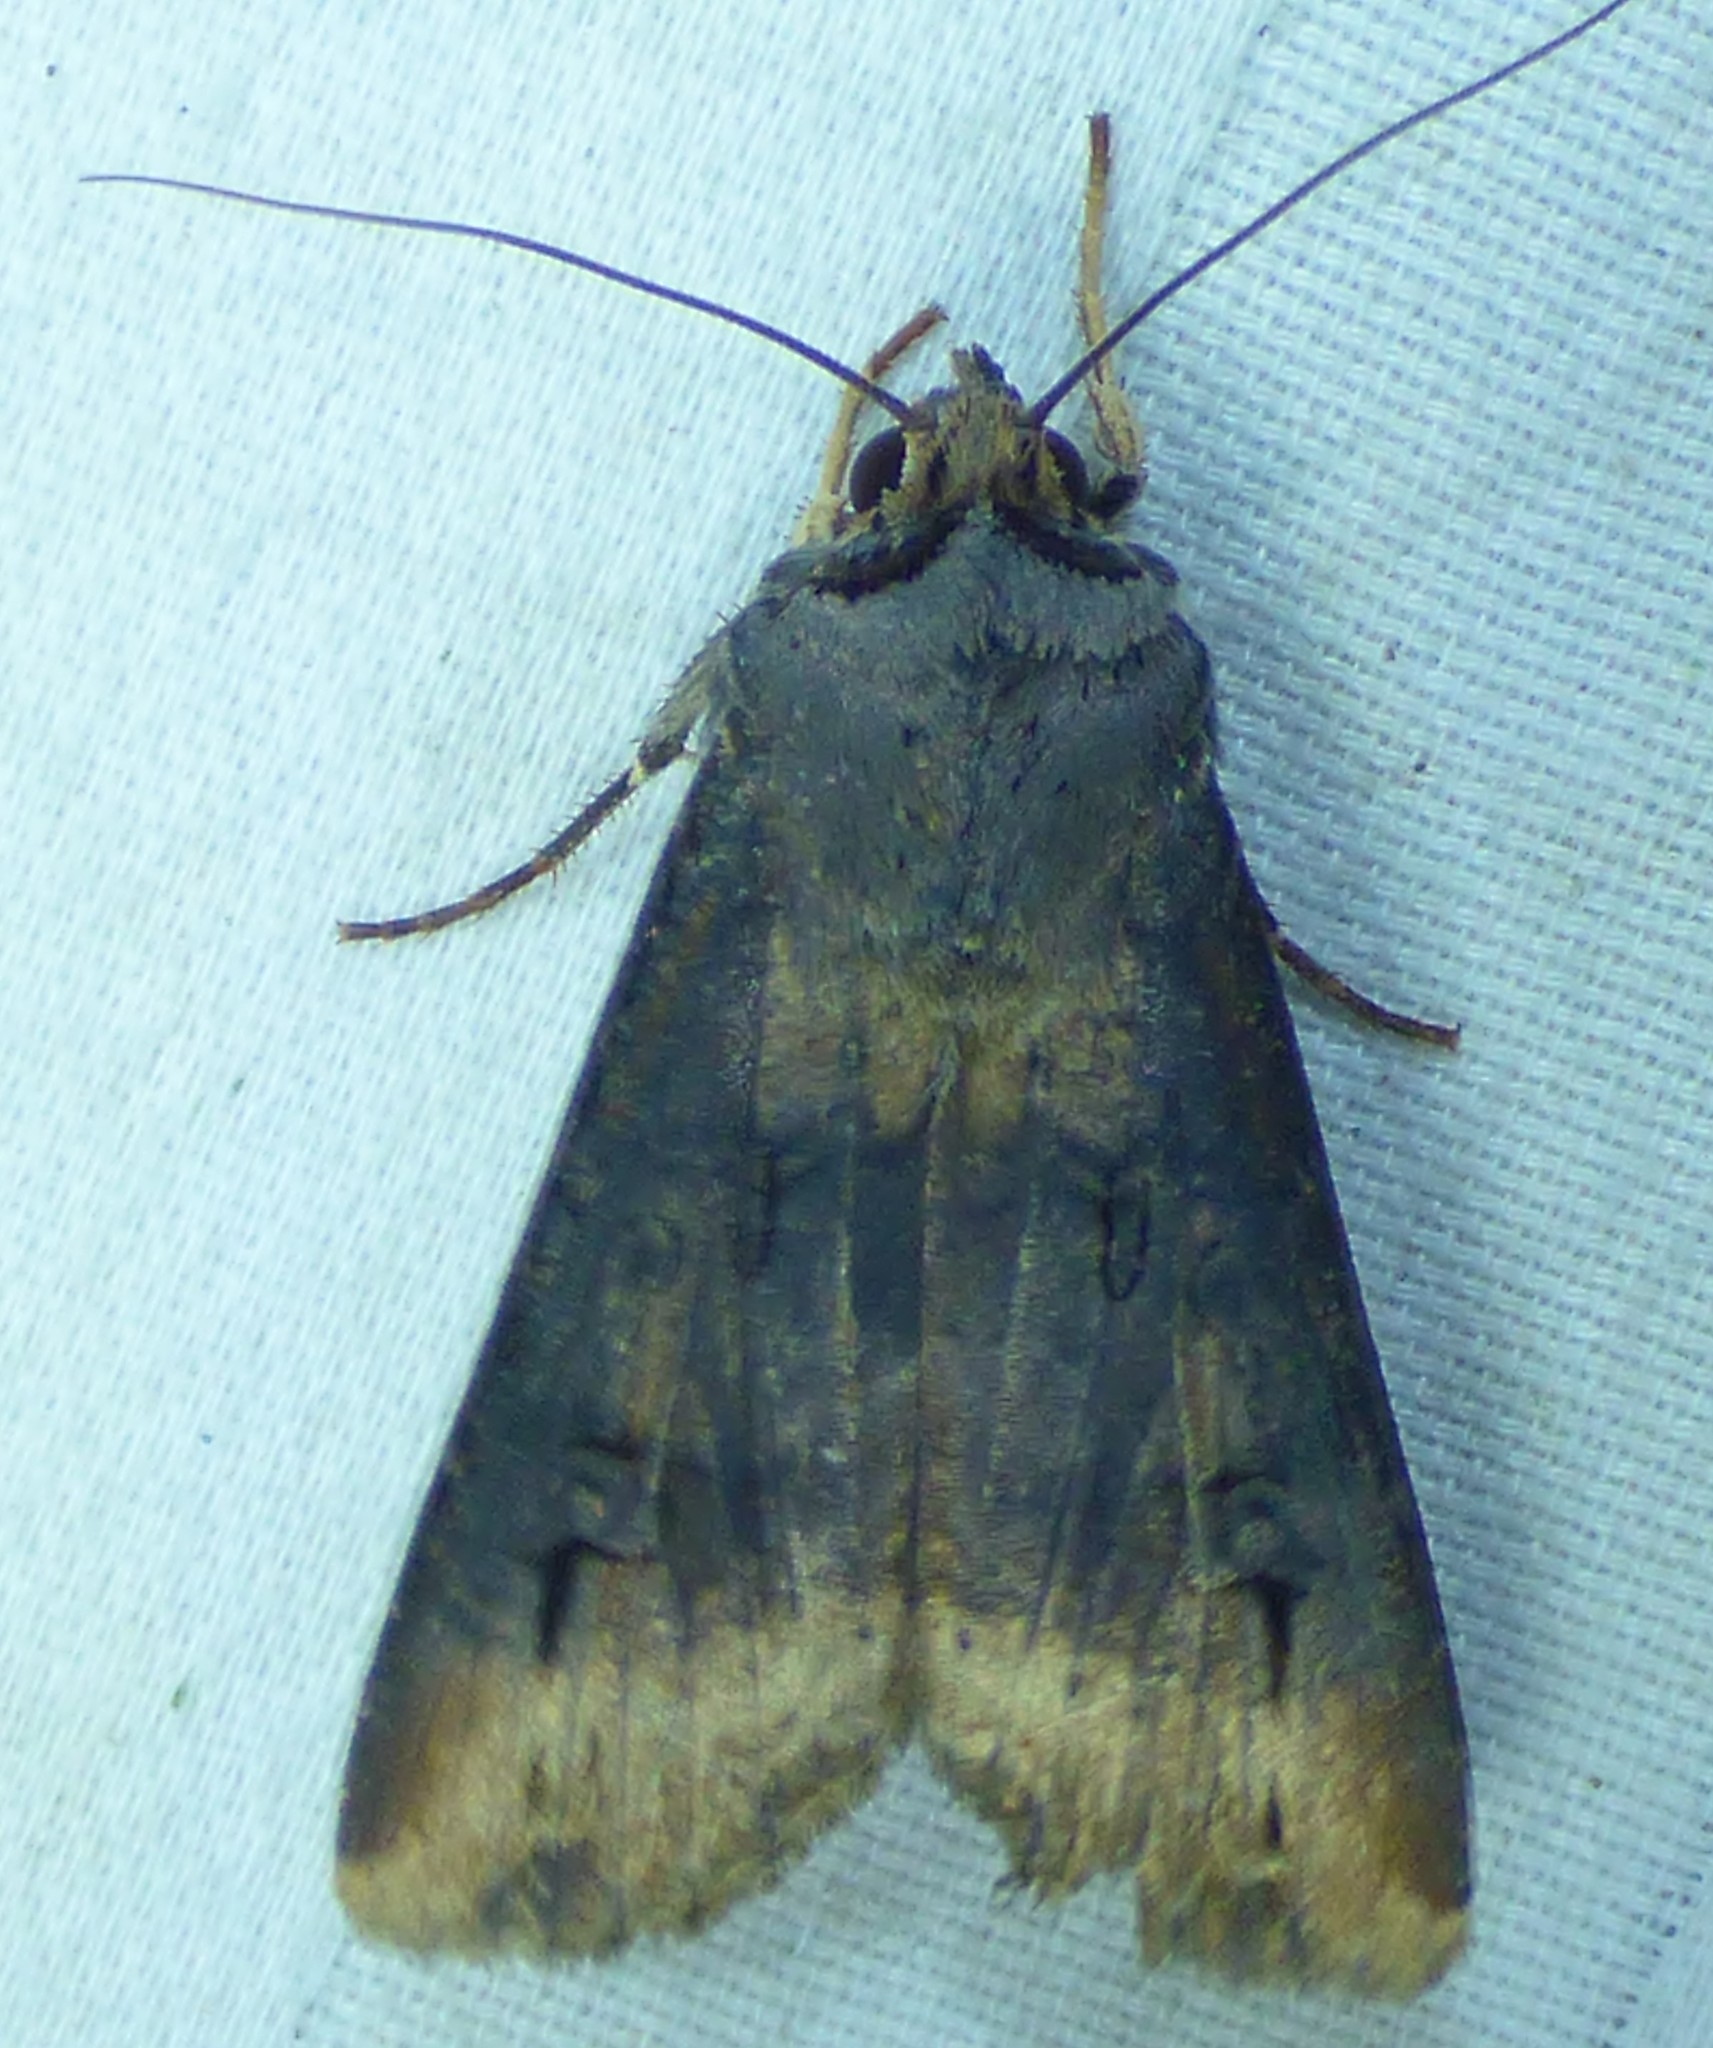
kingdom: Animalia
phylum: Arthropoda
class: Insecta
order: Lepidoptera
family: Noctuidae
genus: Agrotis
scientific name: Agrotis ipsilon
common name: Dark sword-grass
